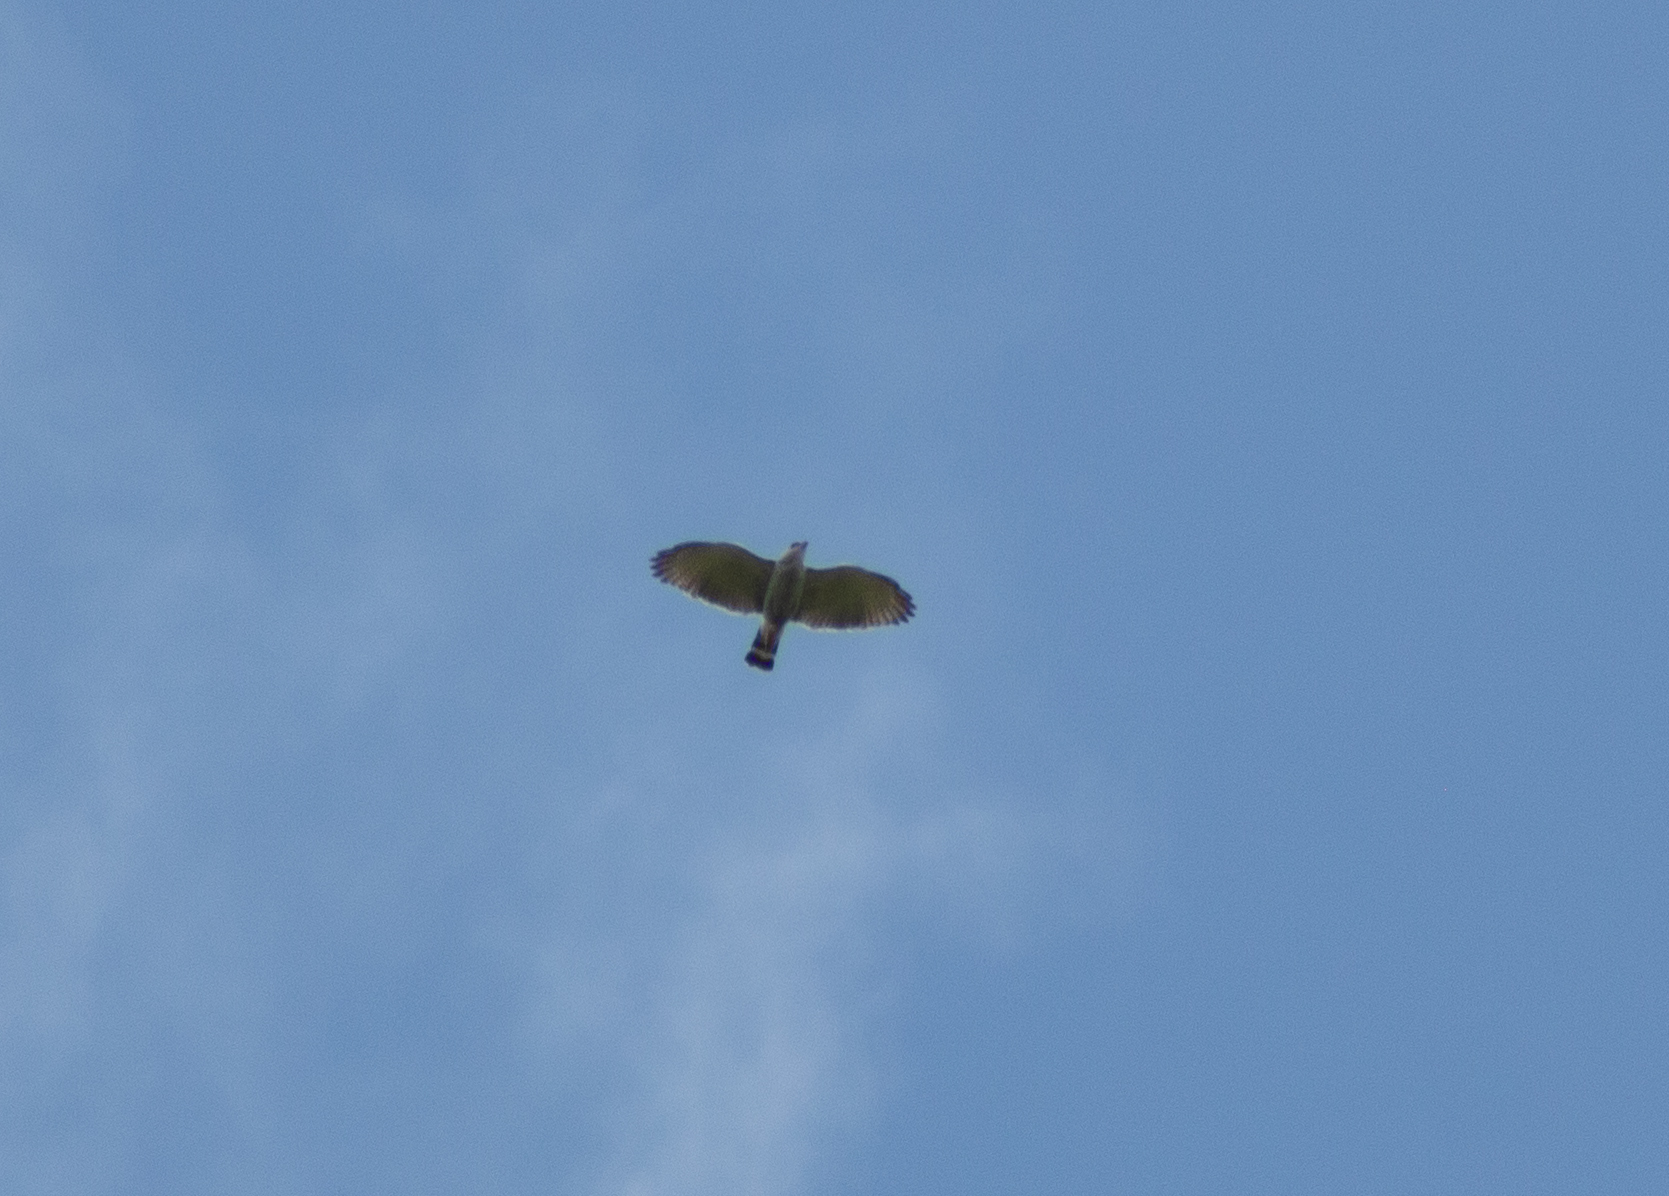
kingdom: Animalia
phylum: Chordata
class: Aves
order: Accipitriformes
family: Accipitridae
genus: Buteo
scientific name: Buteo nitidus
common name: Grey-lined hawk
